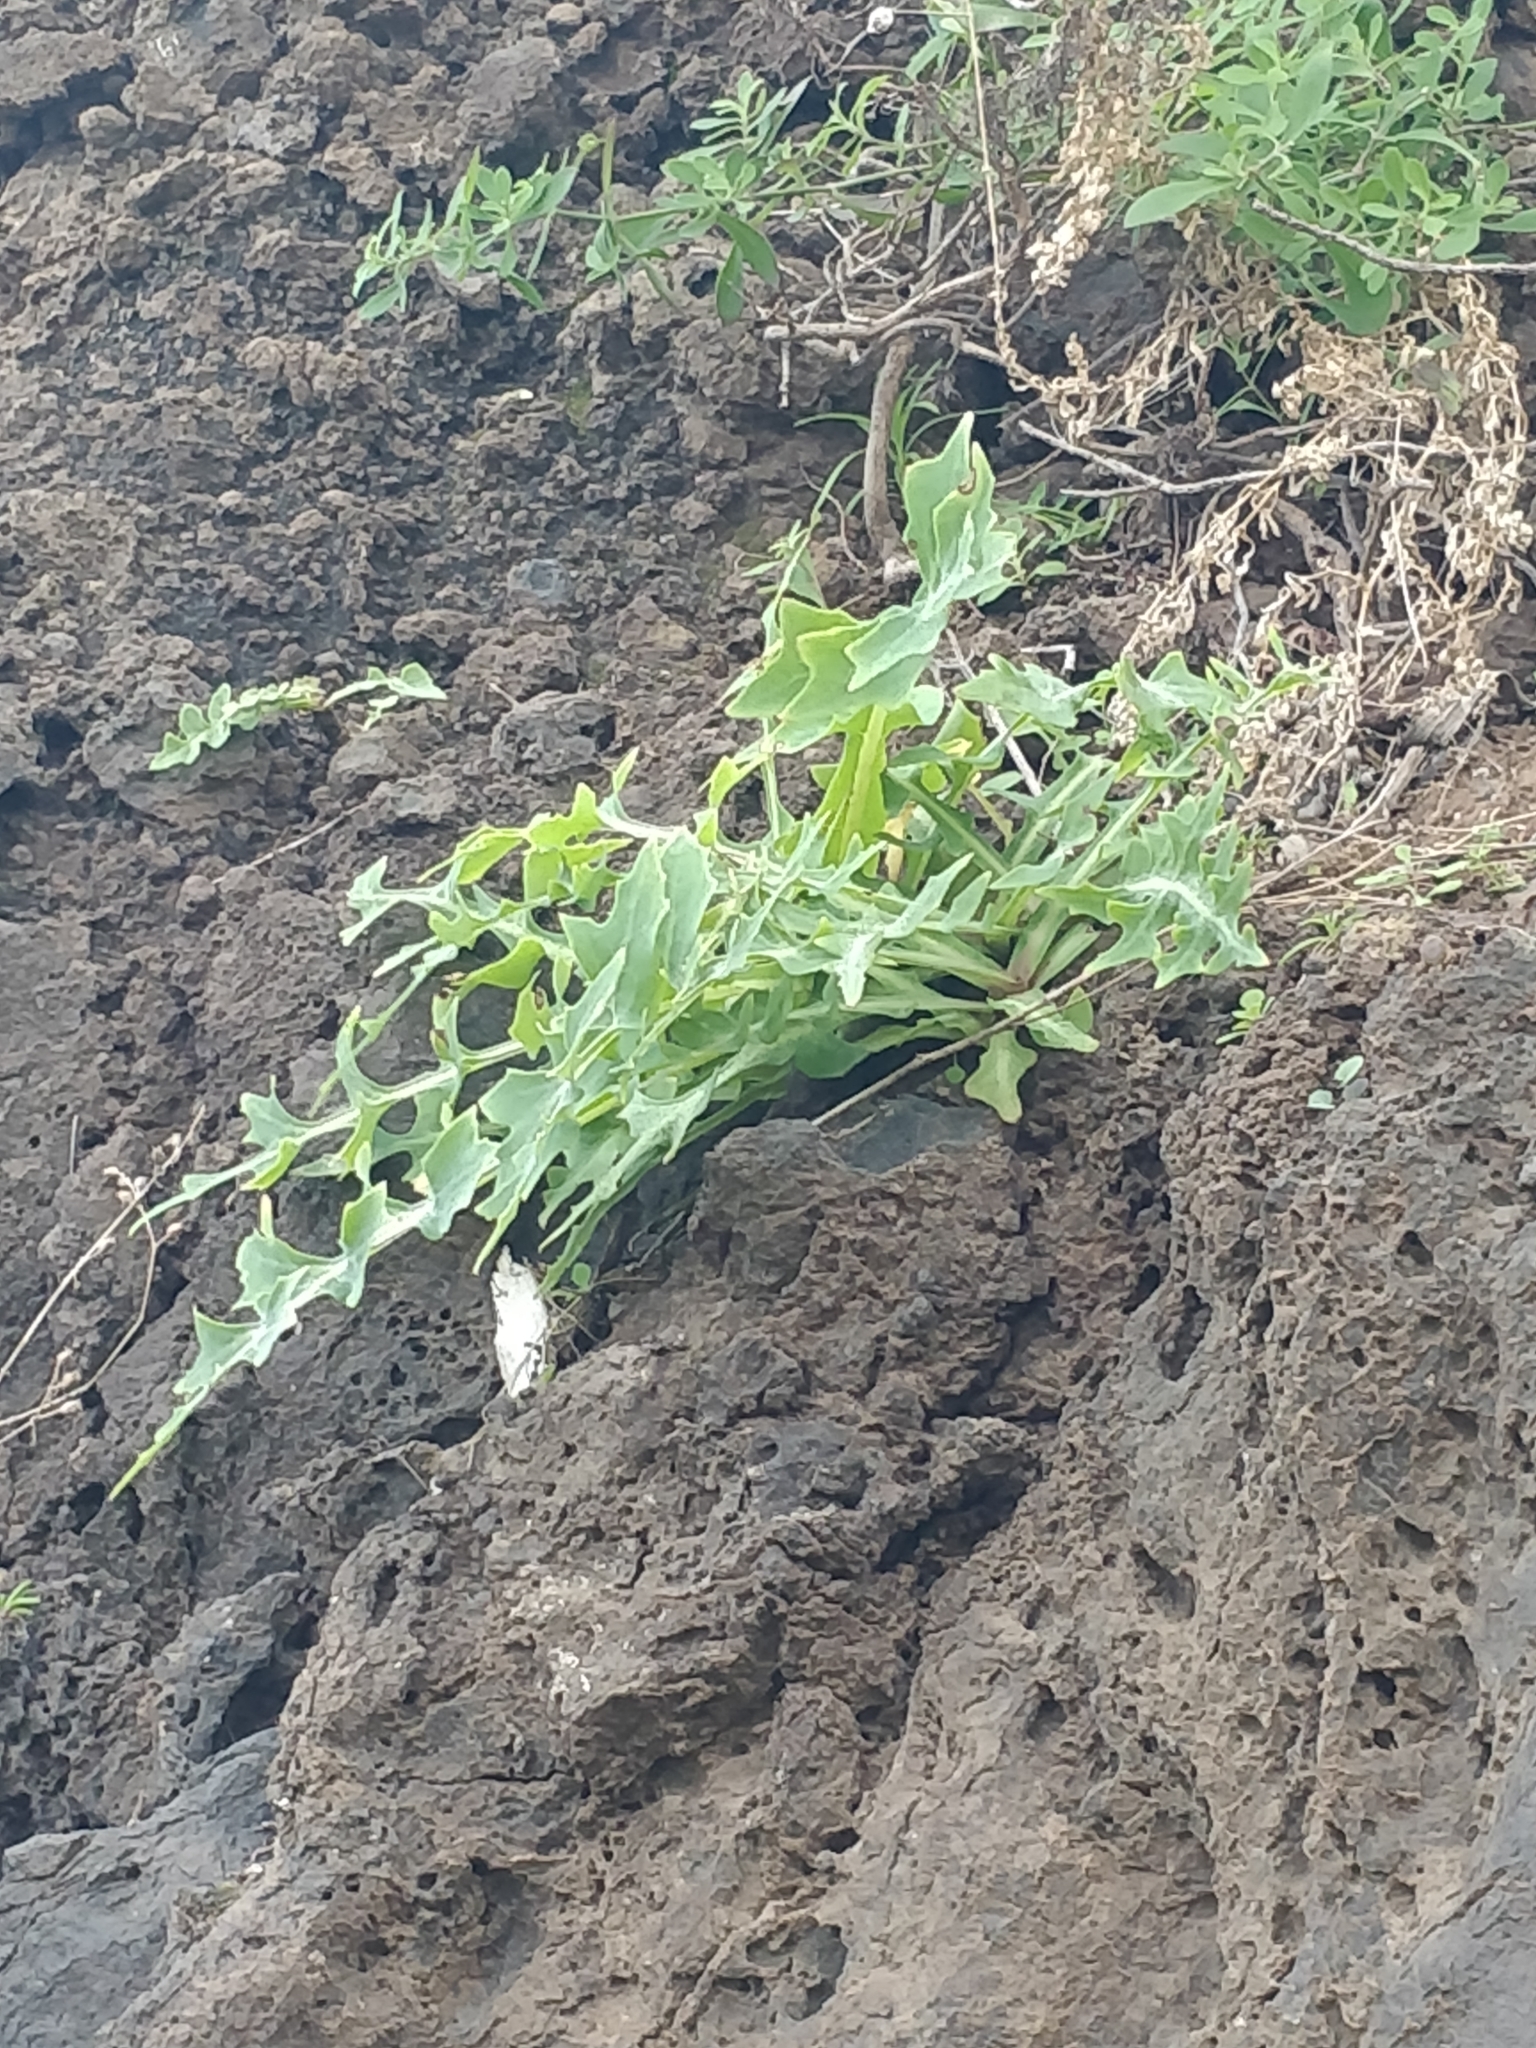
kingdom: Plantae
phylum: Tracheophyta
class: Magnoliopsida
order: Asterales
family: Asteraceae
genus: Sonchus
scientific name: Sonchus ustulatus
